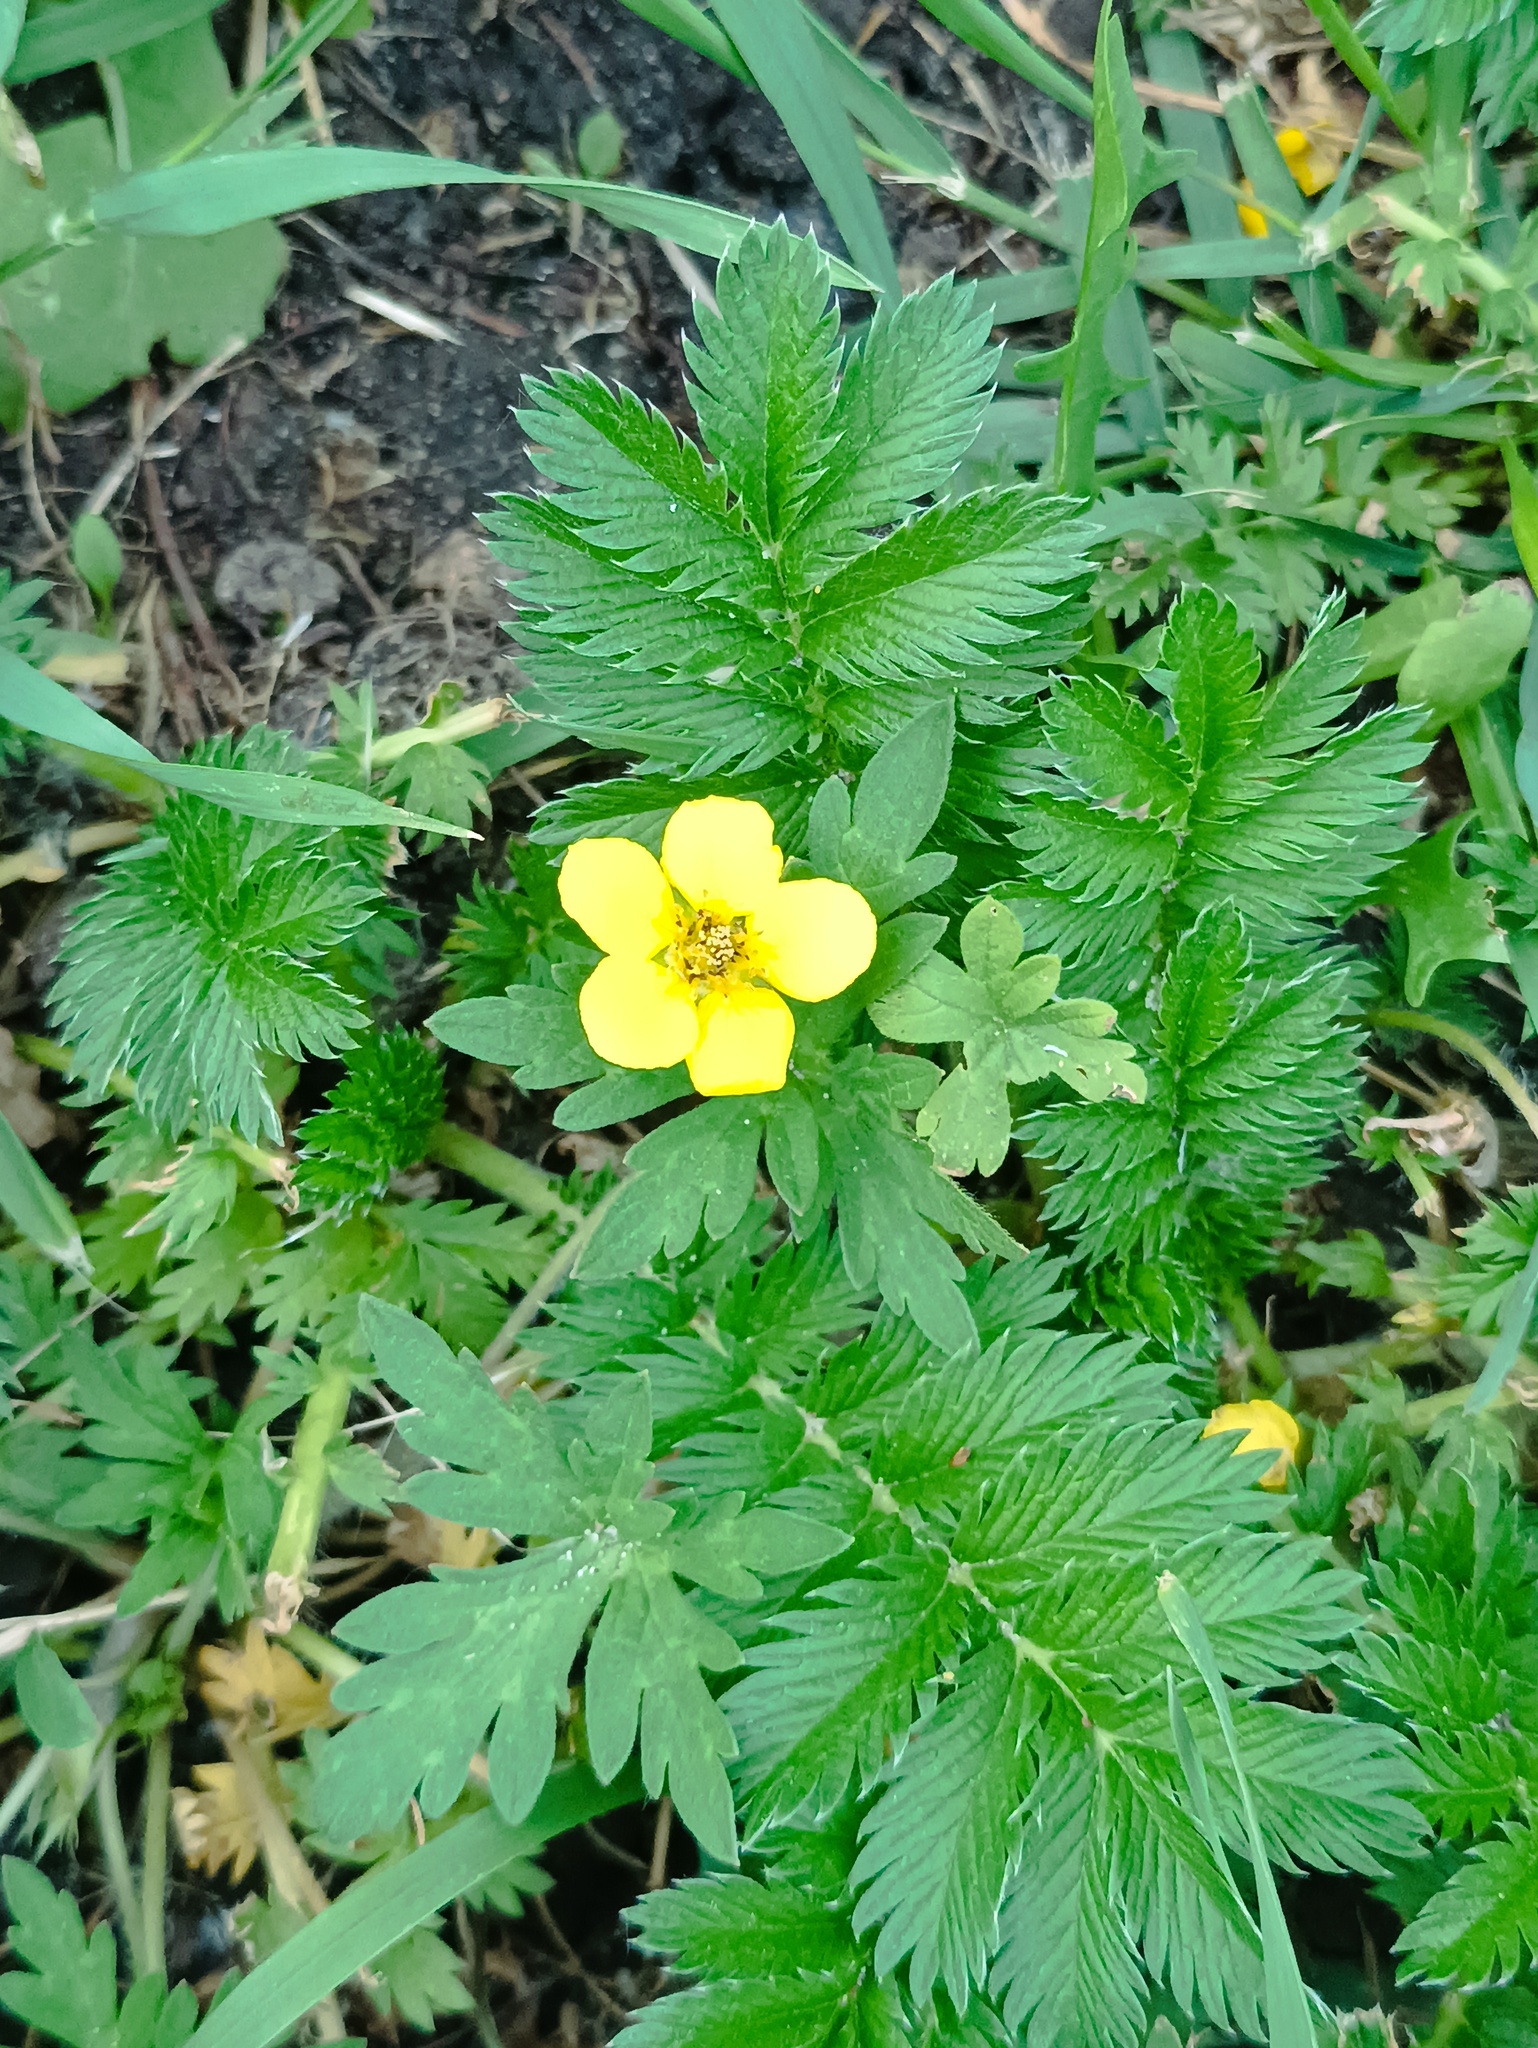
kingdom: Plantae
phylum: Tracheophyta
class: Magnoliopsida
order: Rosales
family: Rosaceae
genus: Argentina
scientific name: Argentina anserina
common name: Common silverweed
